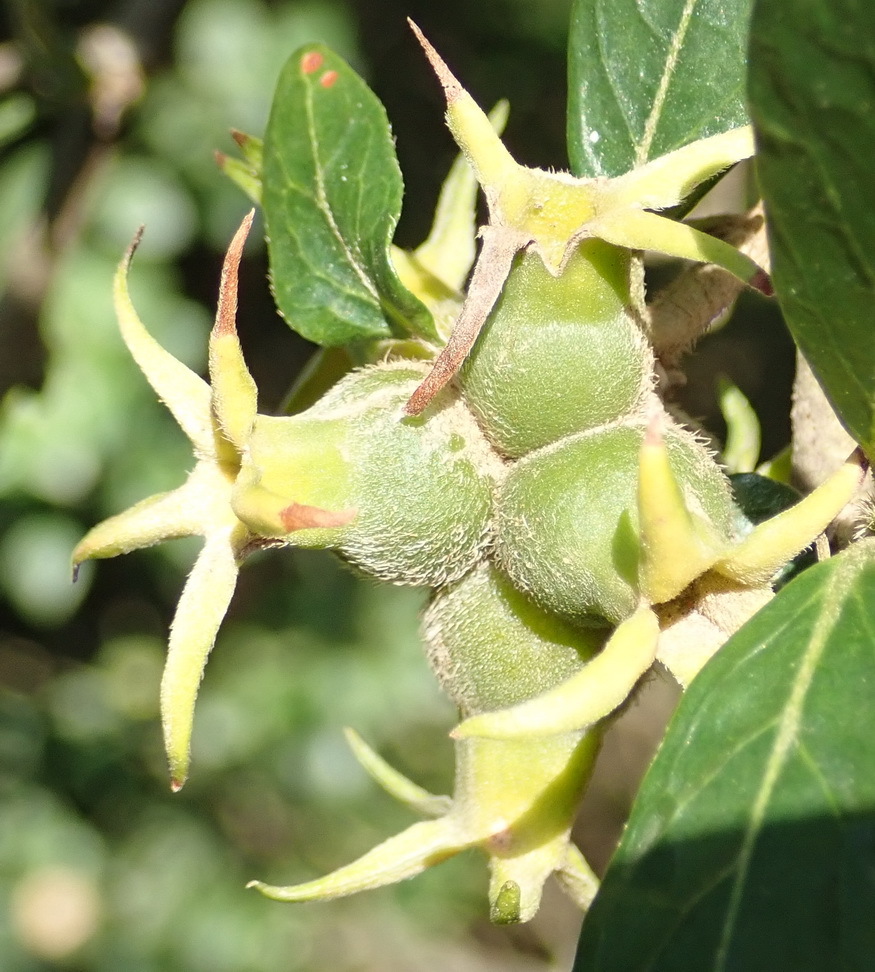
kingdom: Plantae
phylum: Tracheophyta
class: Magnoliopsida
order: Gentianales
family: Rubiaceae
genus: Burchellia
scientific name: Burchellia bubalina
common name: Wild pomegranate
